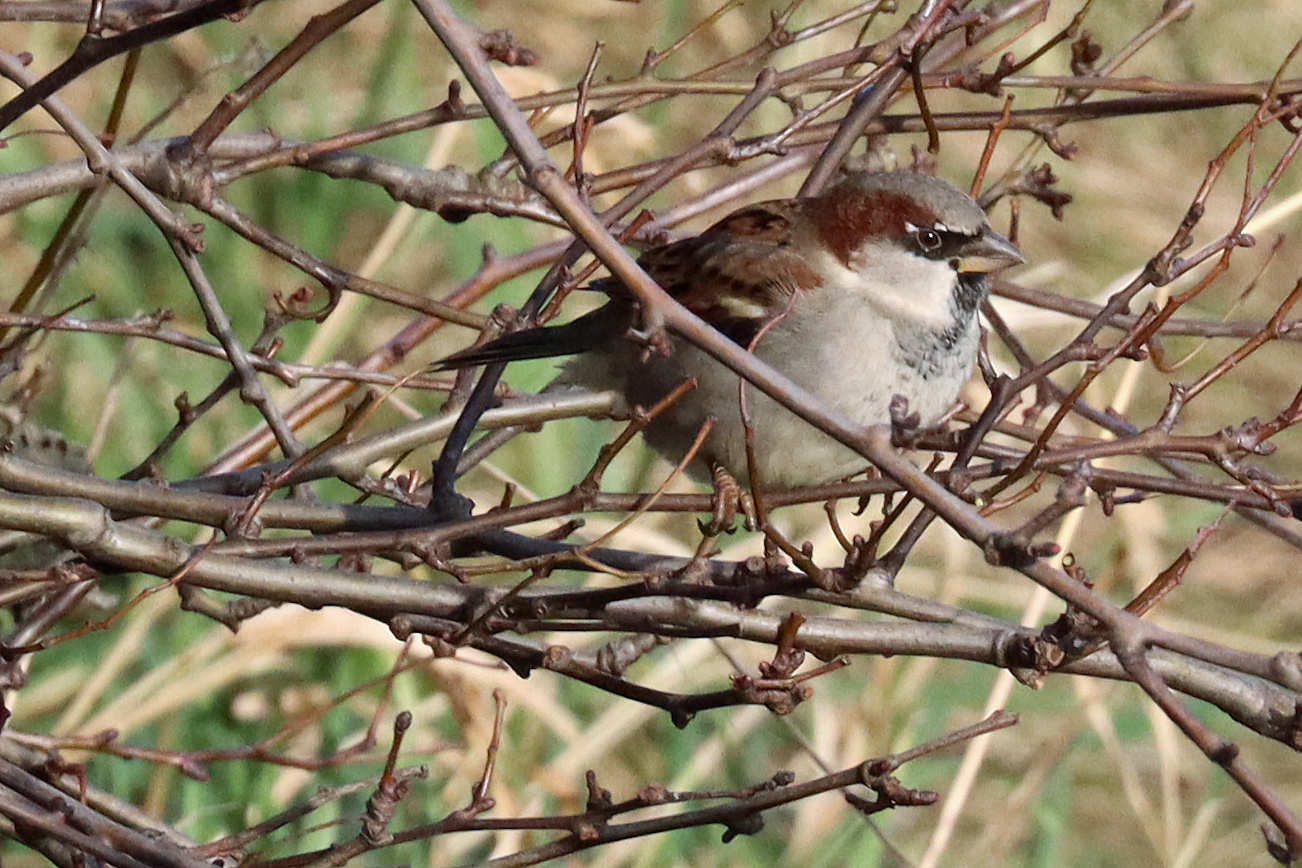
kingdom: Animalia
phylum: Chordata
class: Aves
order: Passeriformes
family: Passeridae
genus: Passer
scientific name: Passer domesticus
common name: House sparrow
